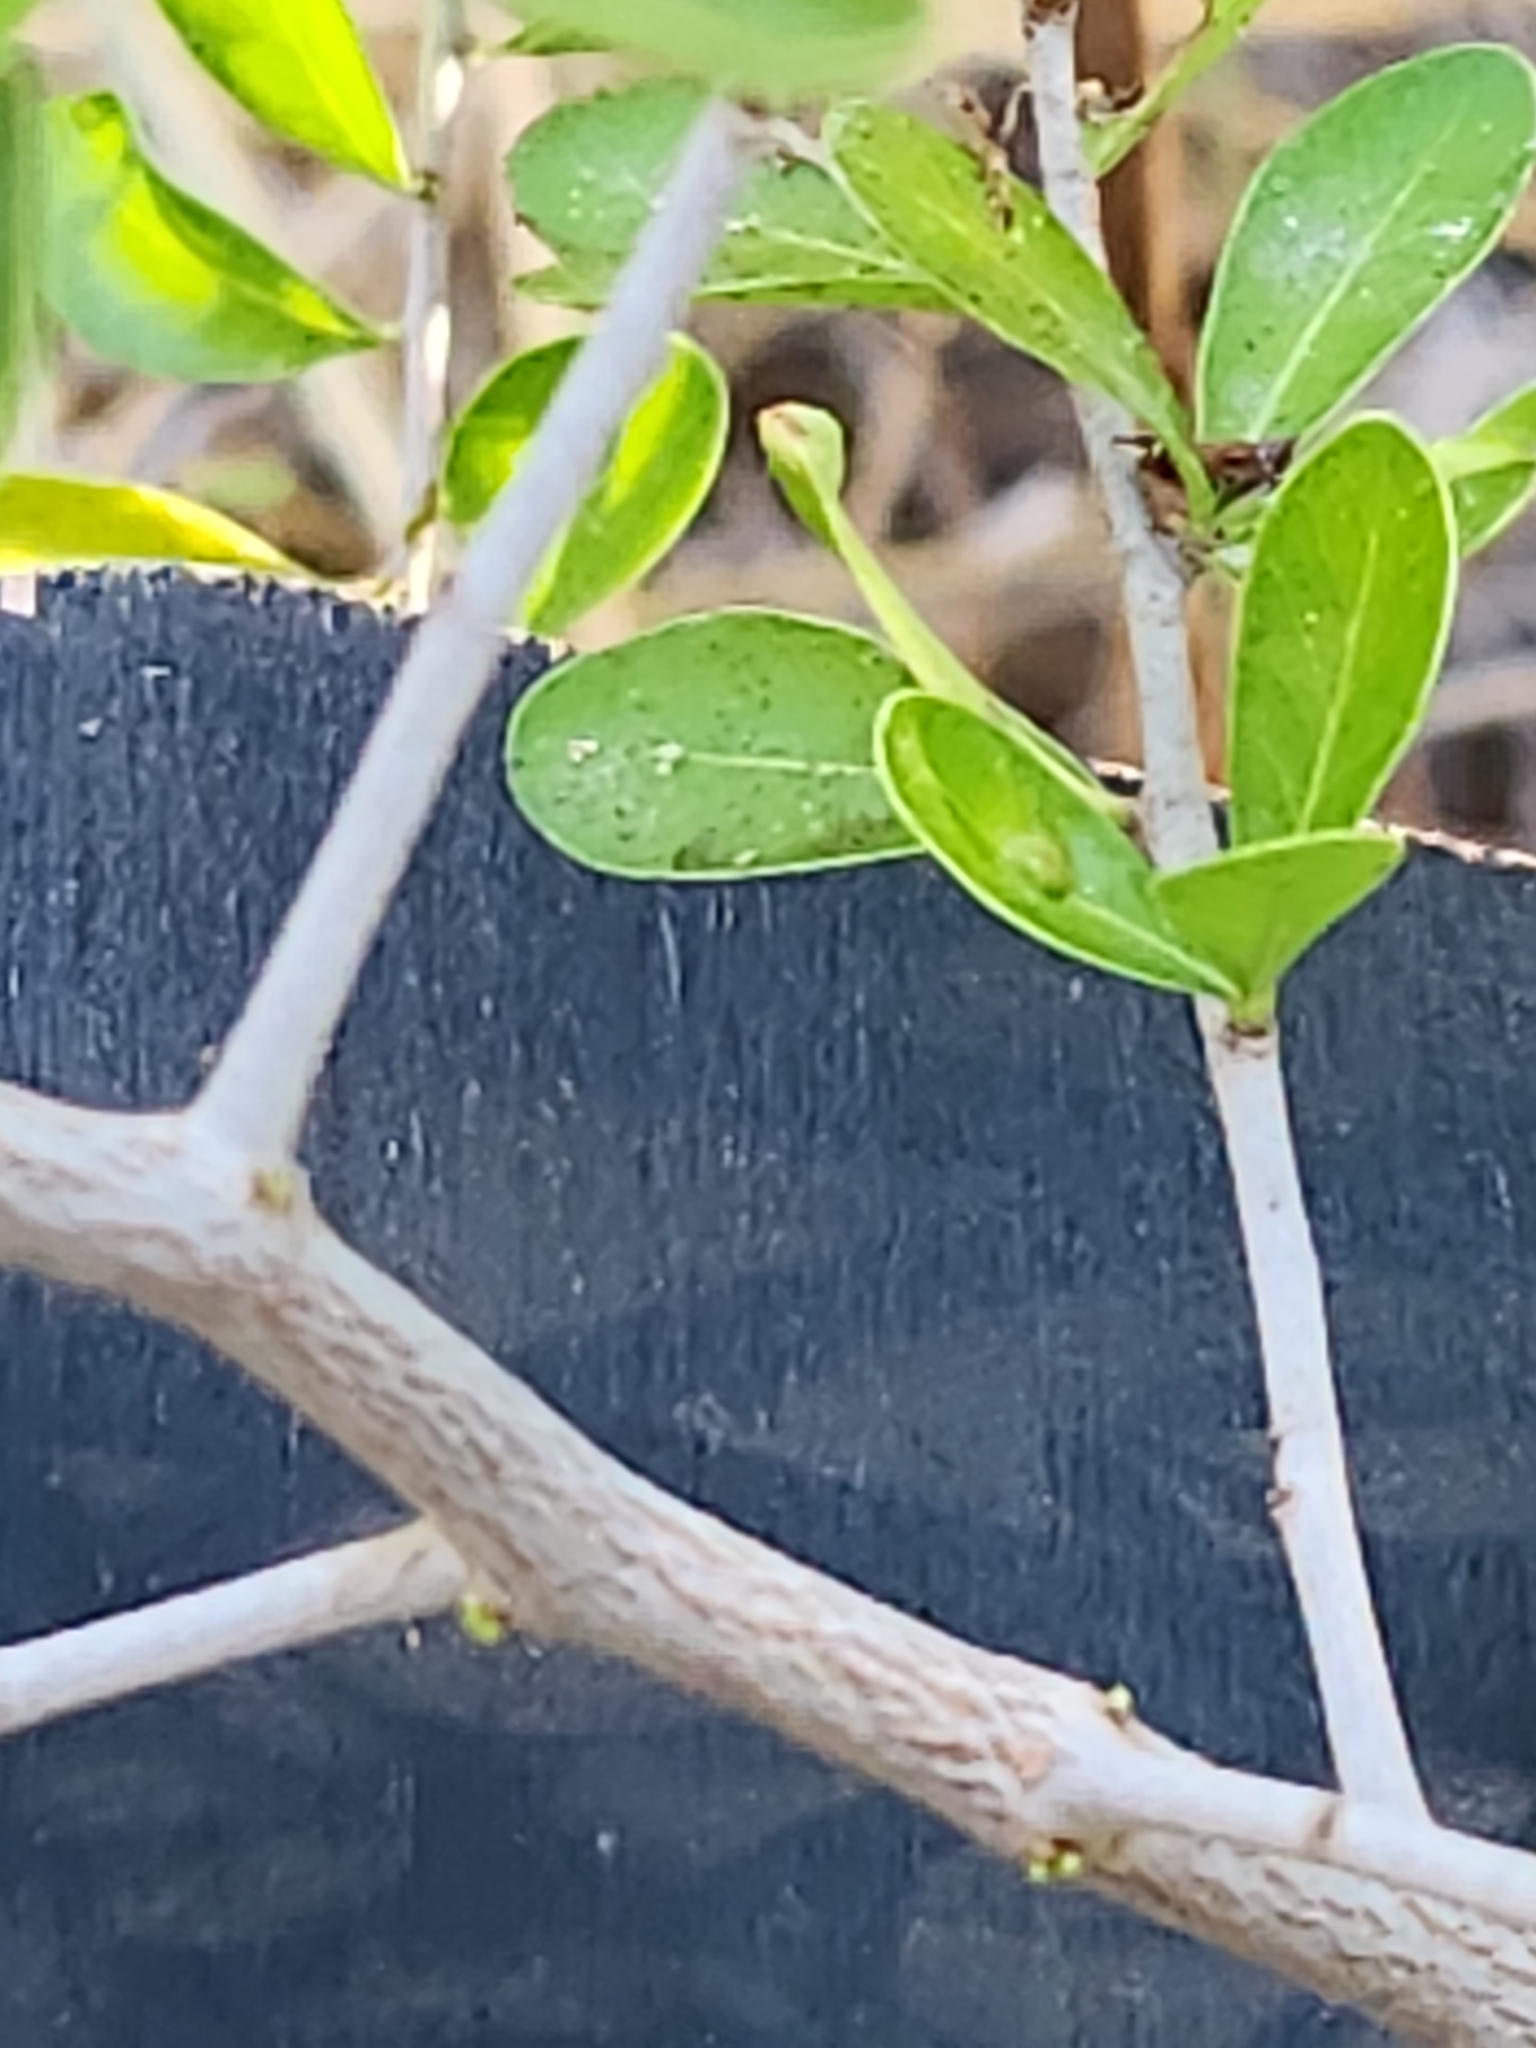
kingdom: Plantae
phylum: Tracheophyta
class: Magnoliopsida
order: Rosales
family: Rhamnaceae
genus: Condalia
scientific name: Condalia hookeri
